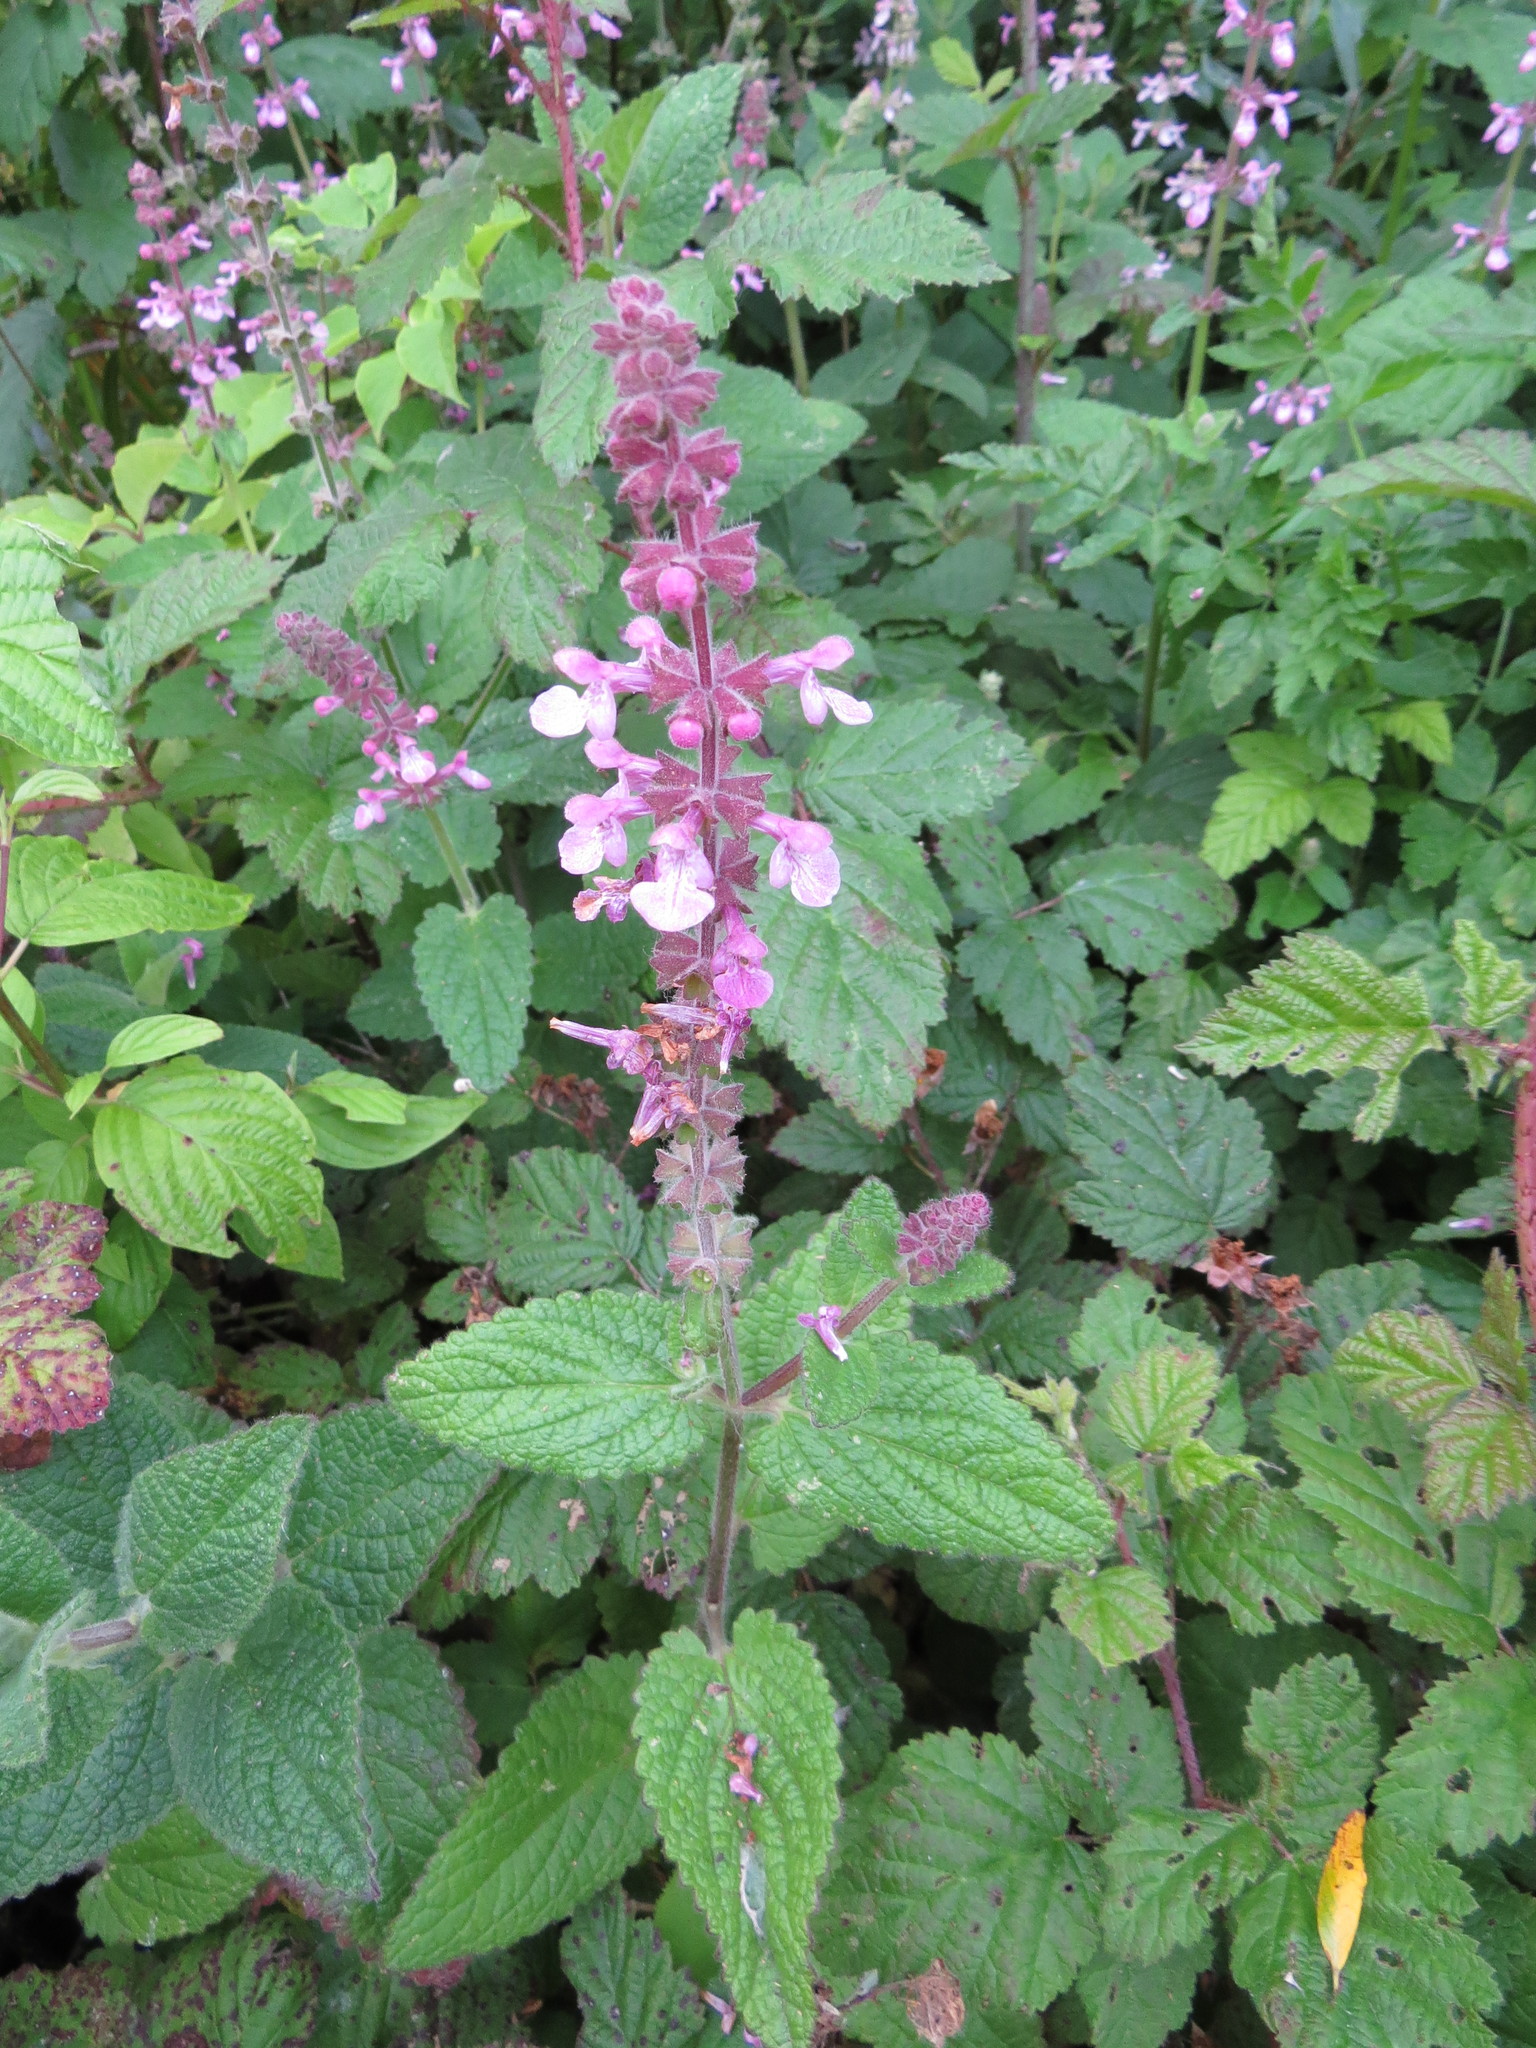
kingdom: Plantae
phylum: Tracheophyta
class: Magnoliopsida
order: Lamiales
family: Lamiaceae
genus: Stachys
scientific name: Stachys chamissonis
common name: Coastal hedge-nettle
